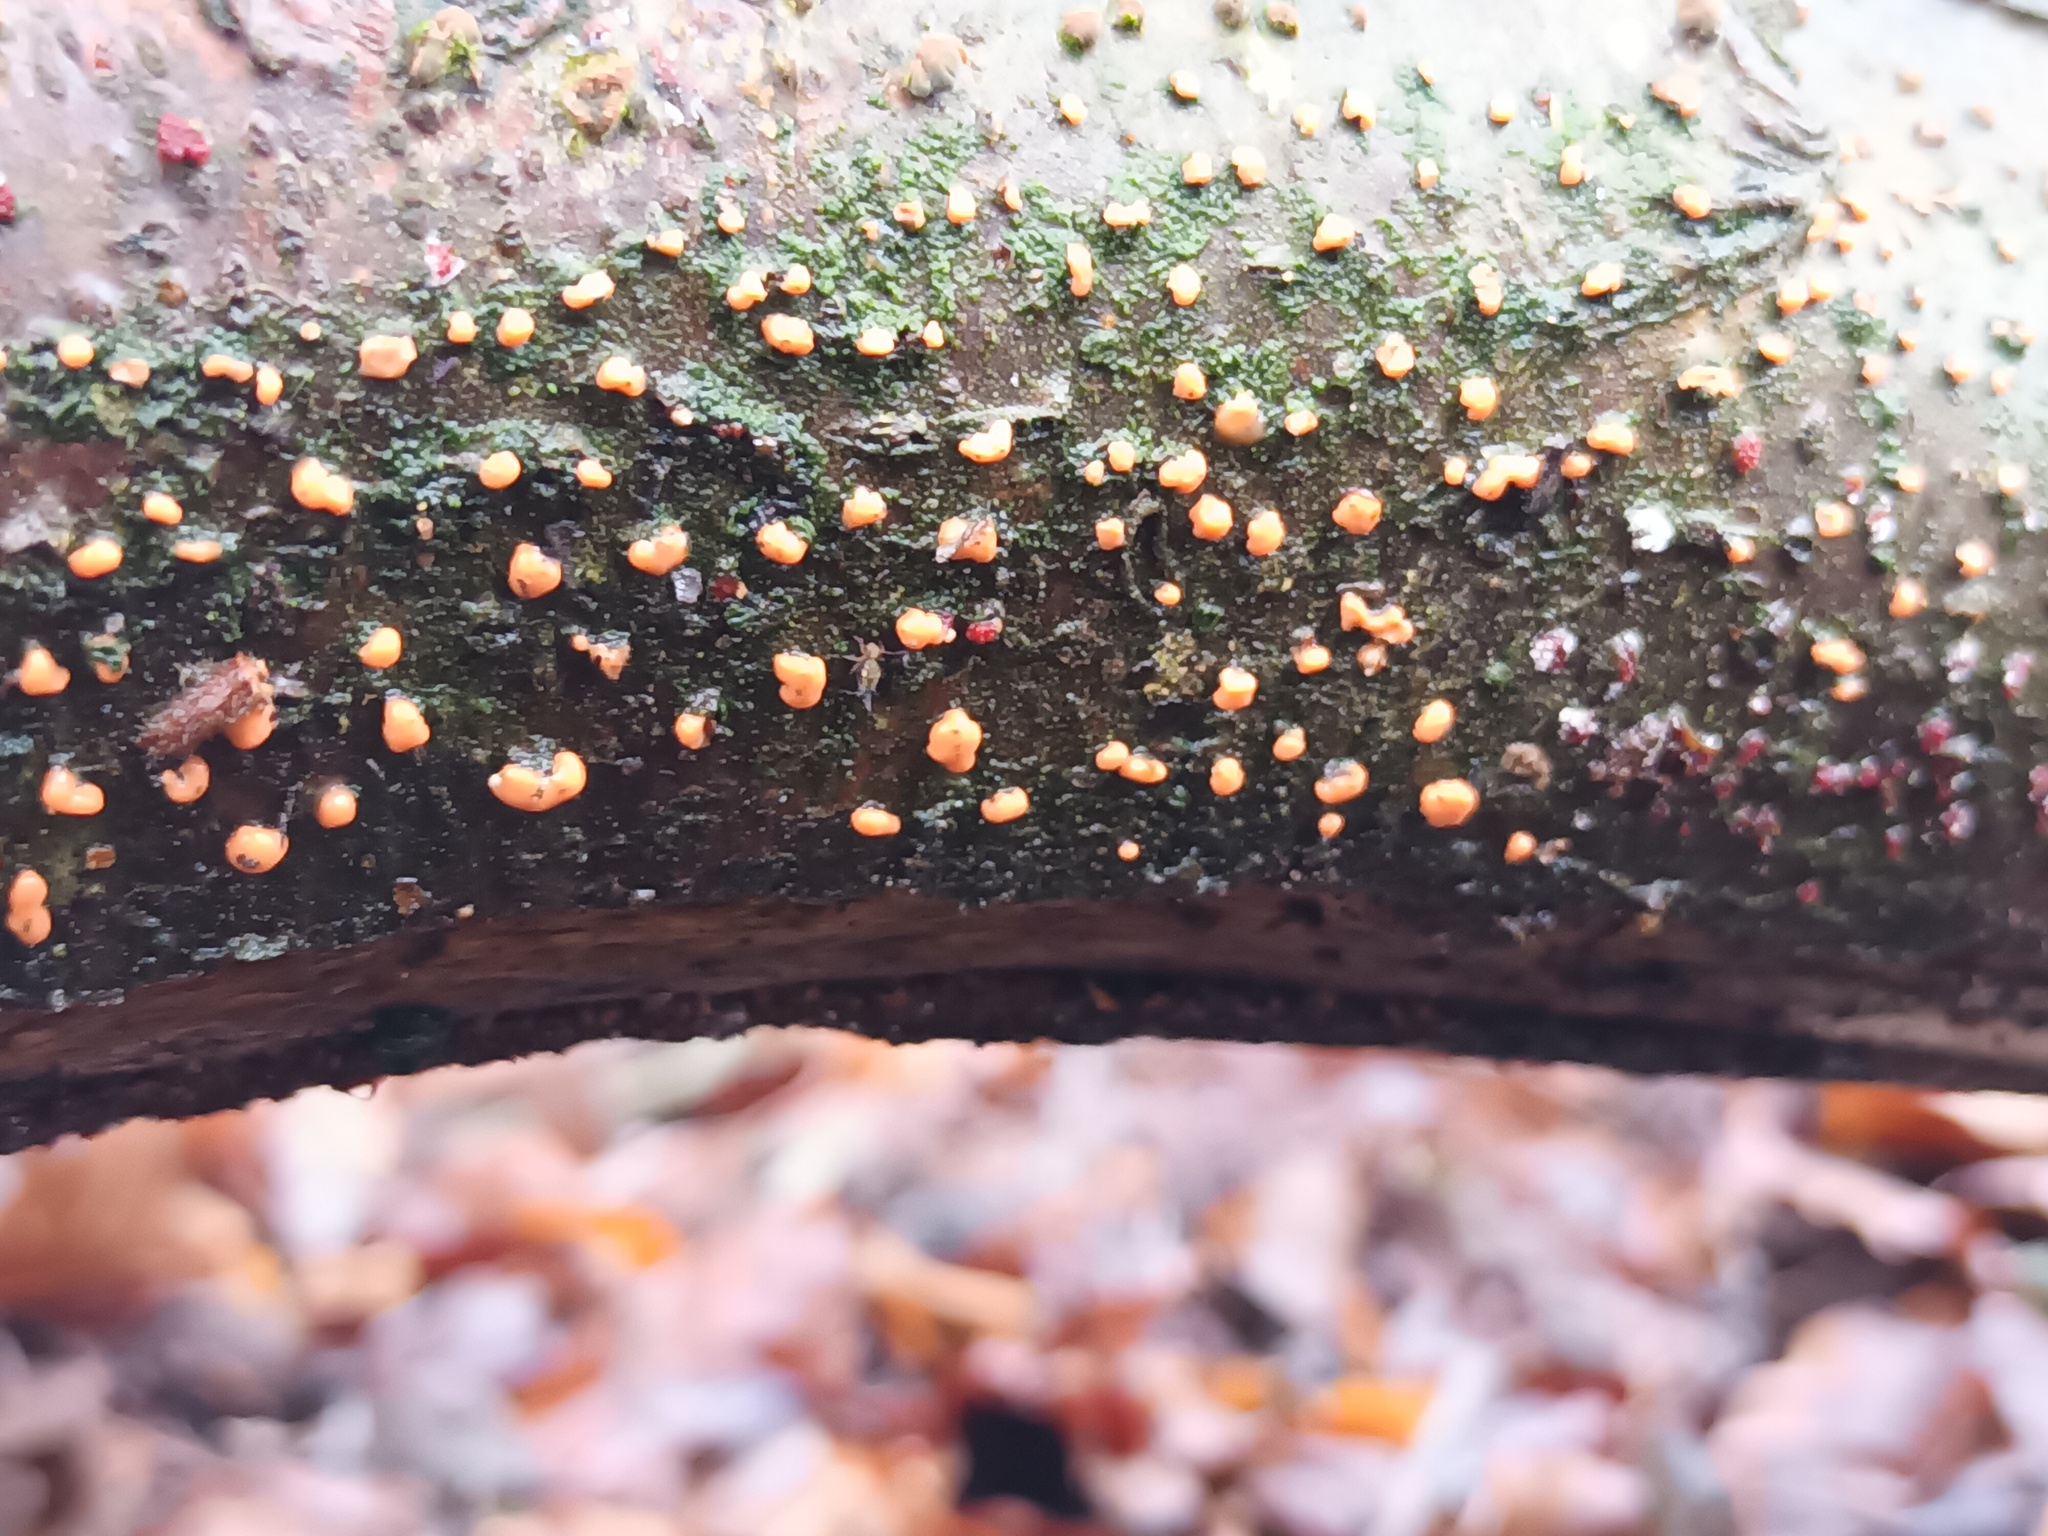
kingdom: Fungi
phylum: Ascomycota
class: Sordariomycetes
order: Hypocreales
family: Nectriaceae
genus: Nectria
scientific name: Nectria cinnabarina
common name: Coral spot
